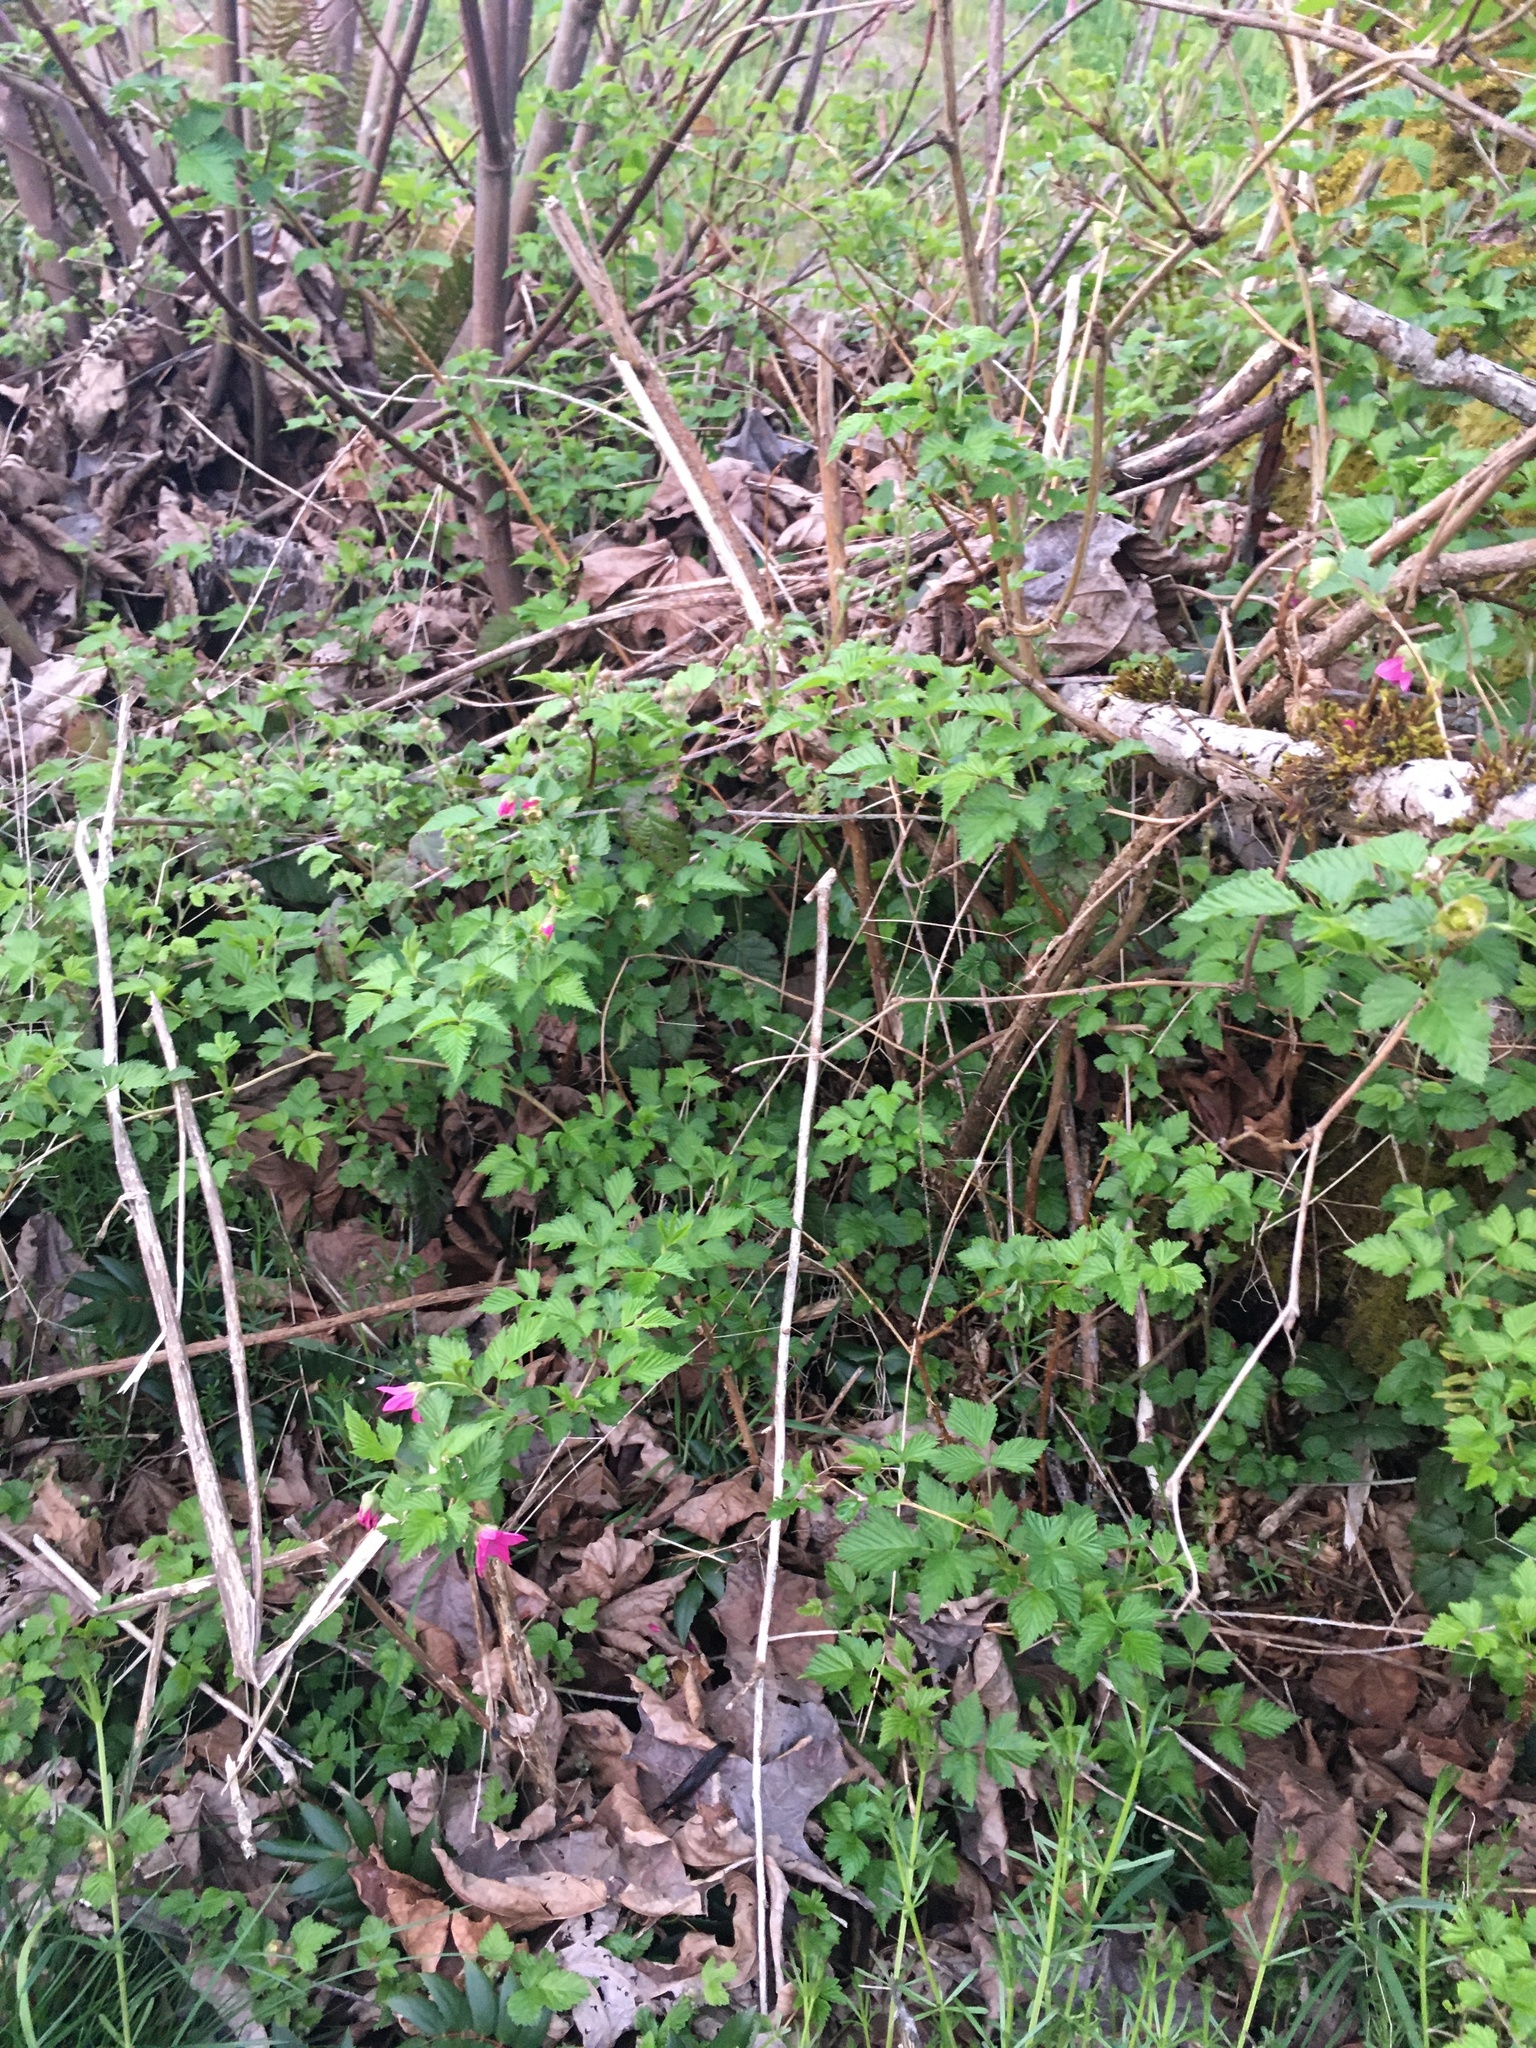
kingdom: Plantae
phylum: Tracheophyta
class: Magnoliopsida
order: Rosales
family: Rosaceae
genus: Rubus
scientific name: Rubus spectabilis
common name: Salmonberry
